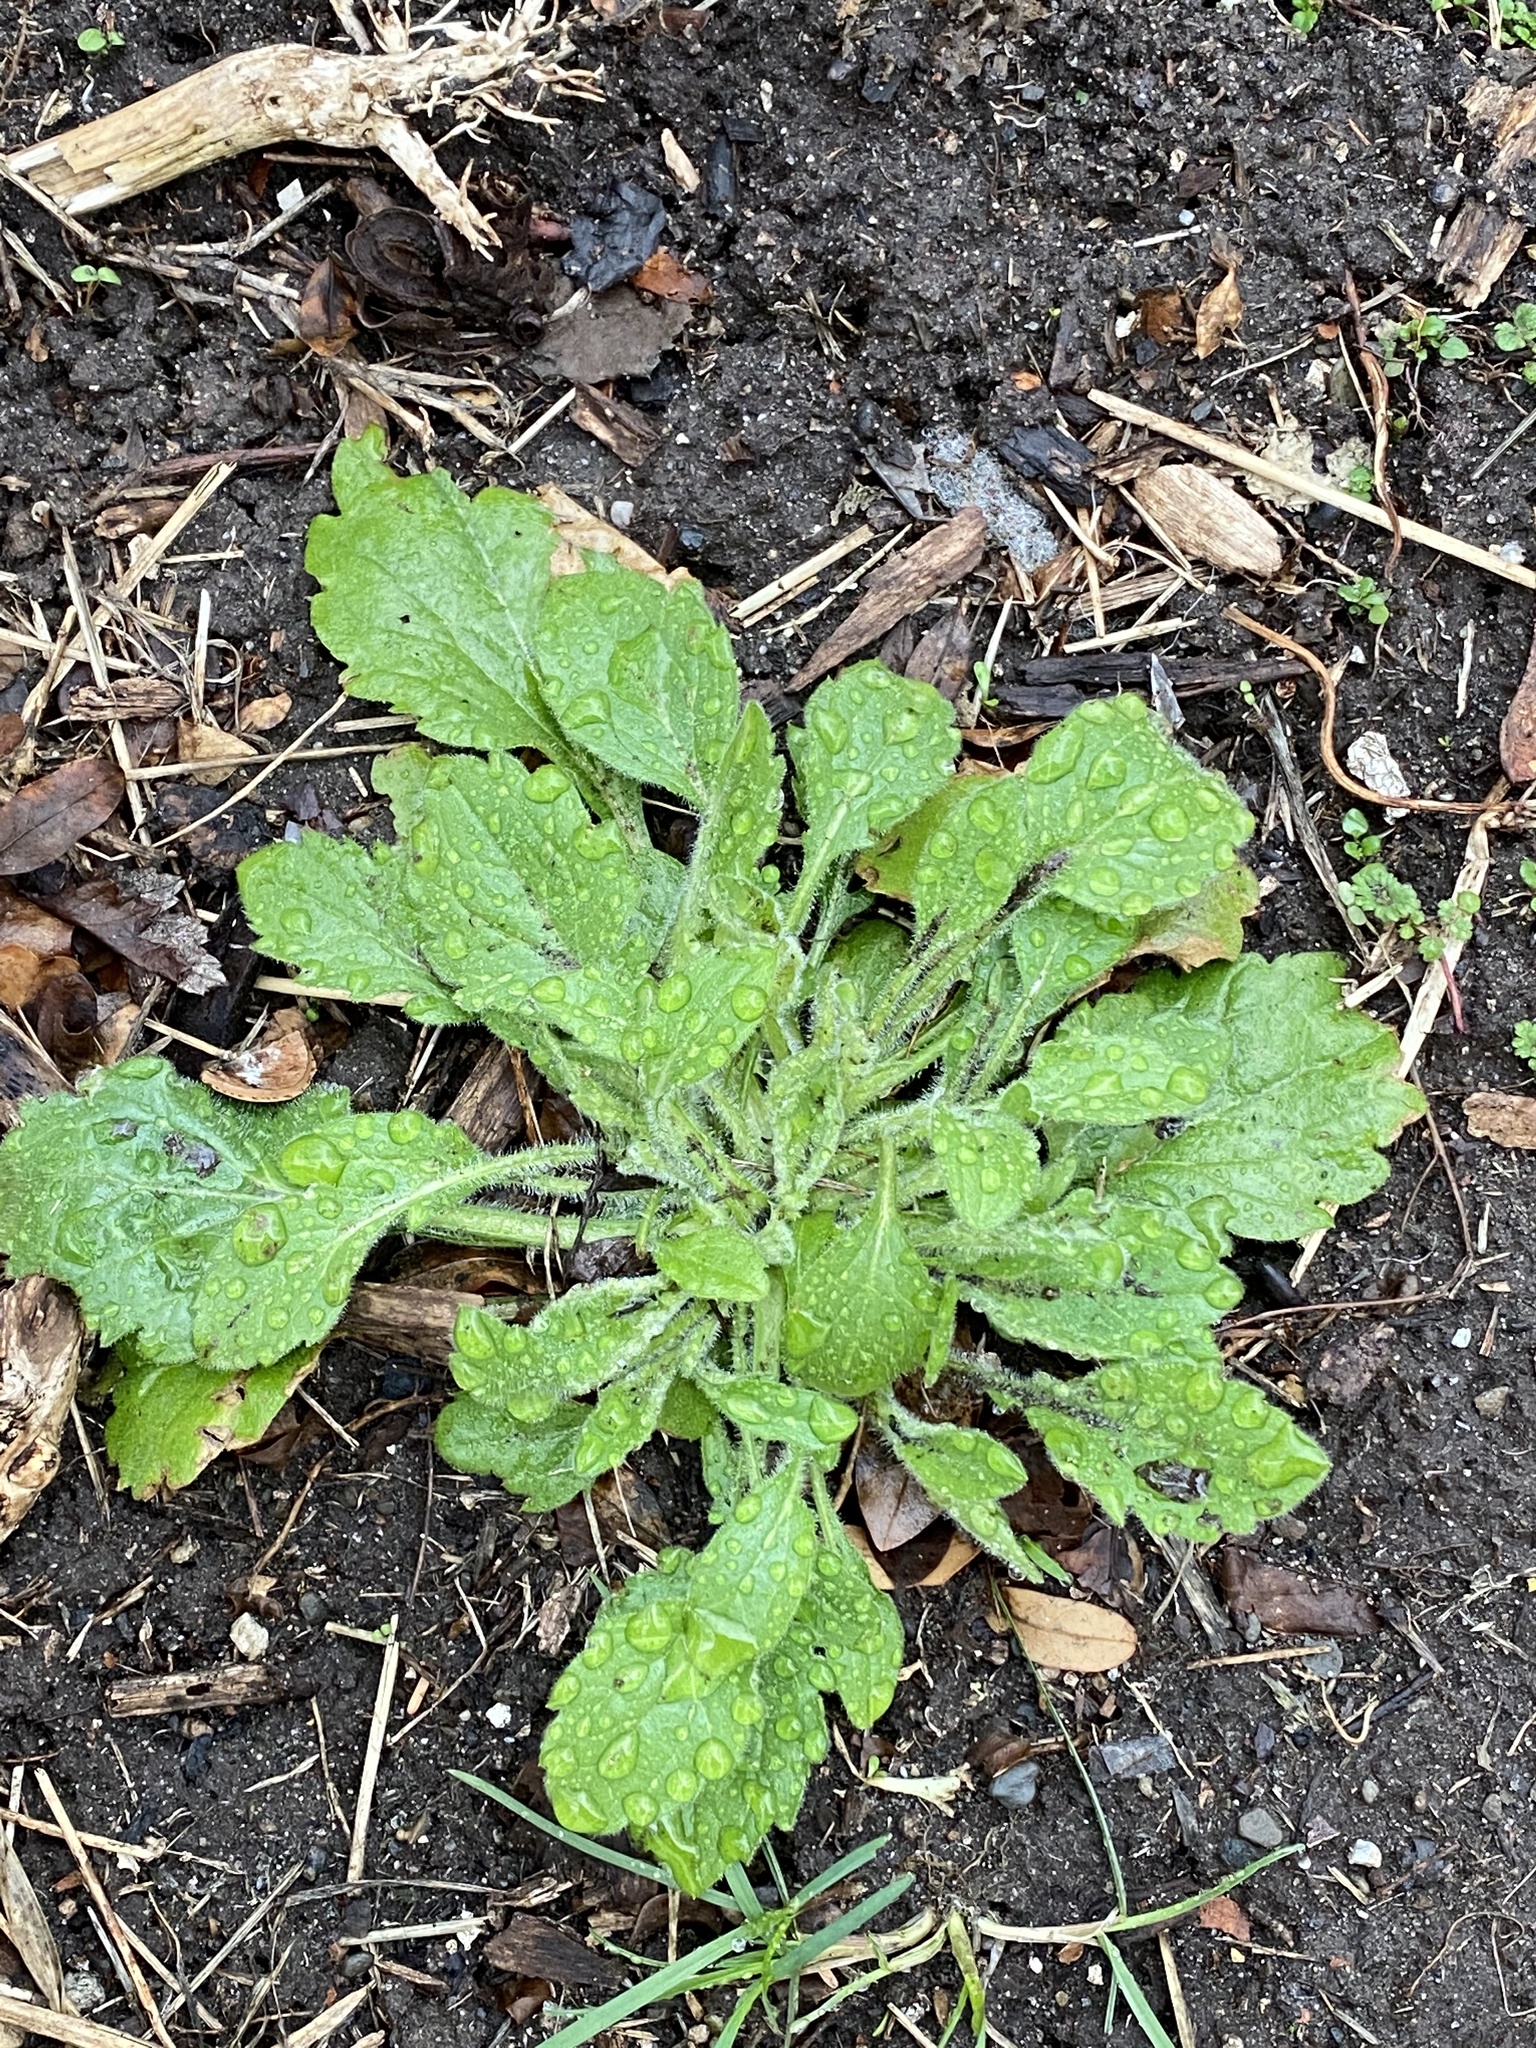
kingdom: Plantae
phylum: Tracheophyta
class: Magnoliopsida
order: Asterales
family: Asteraceae
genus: Erigeron
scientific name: Erigeron canadensis
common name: Canadian fleabane
